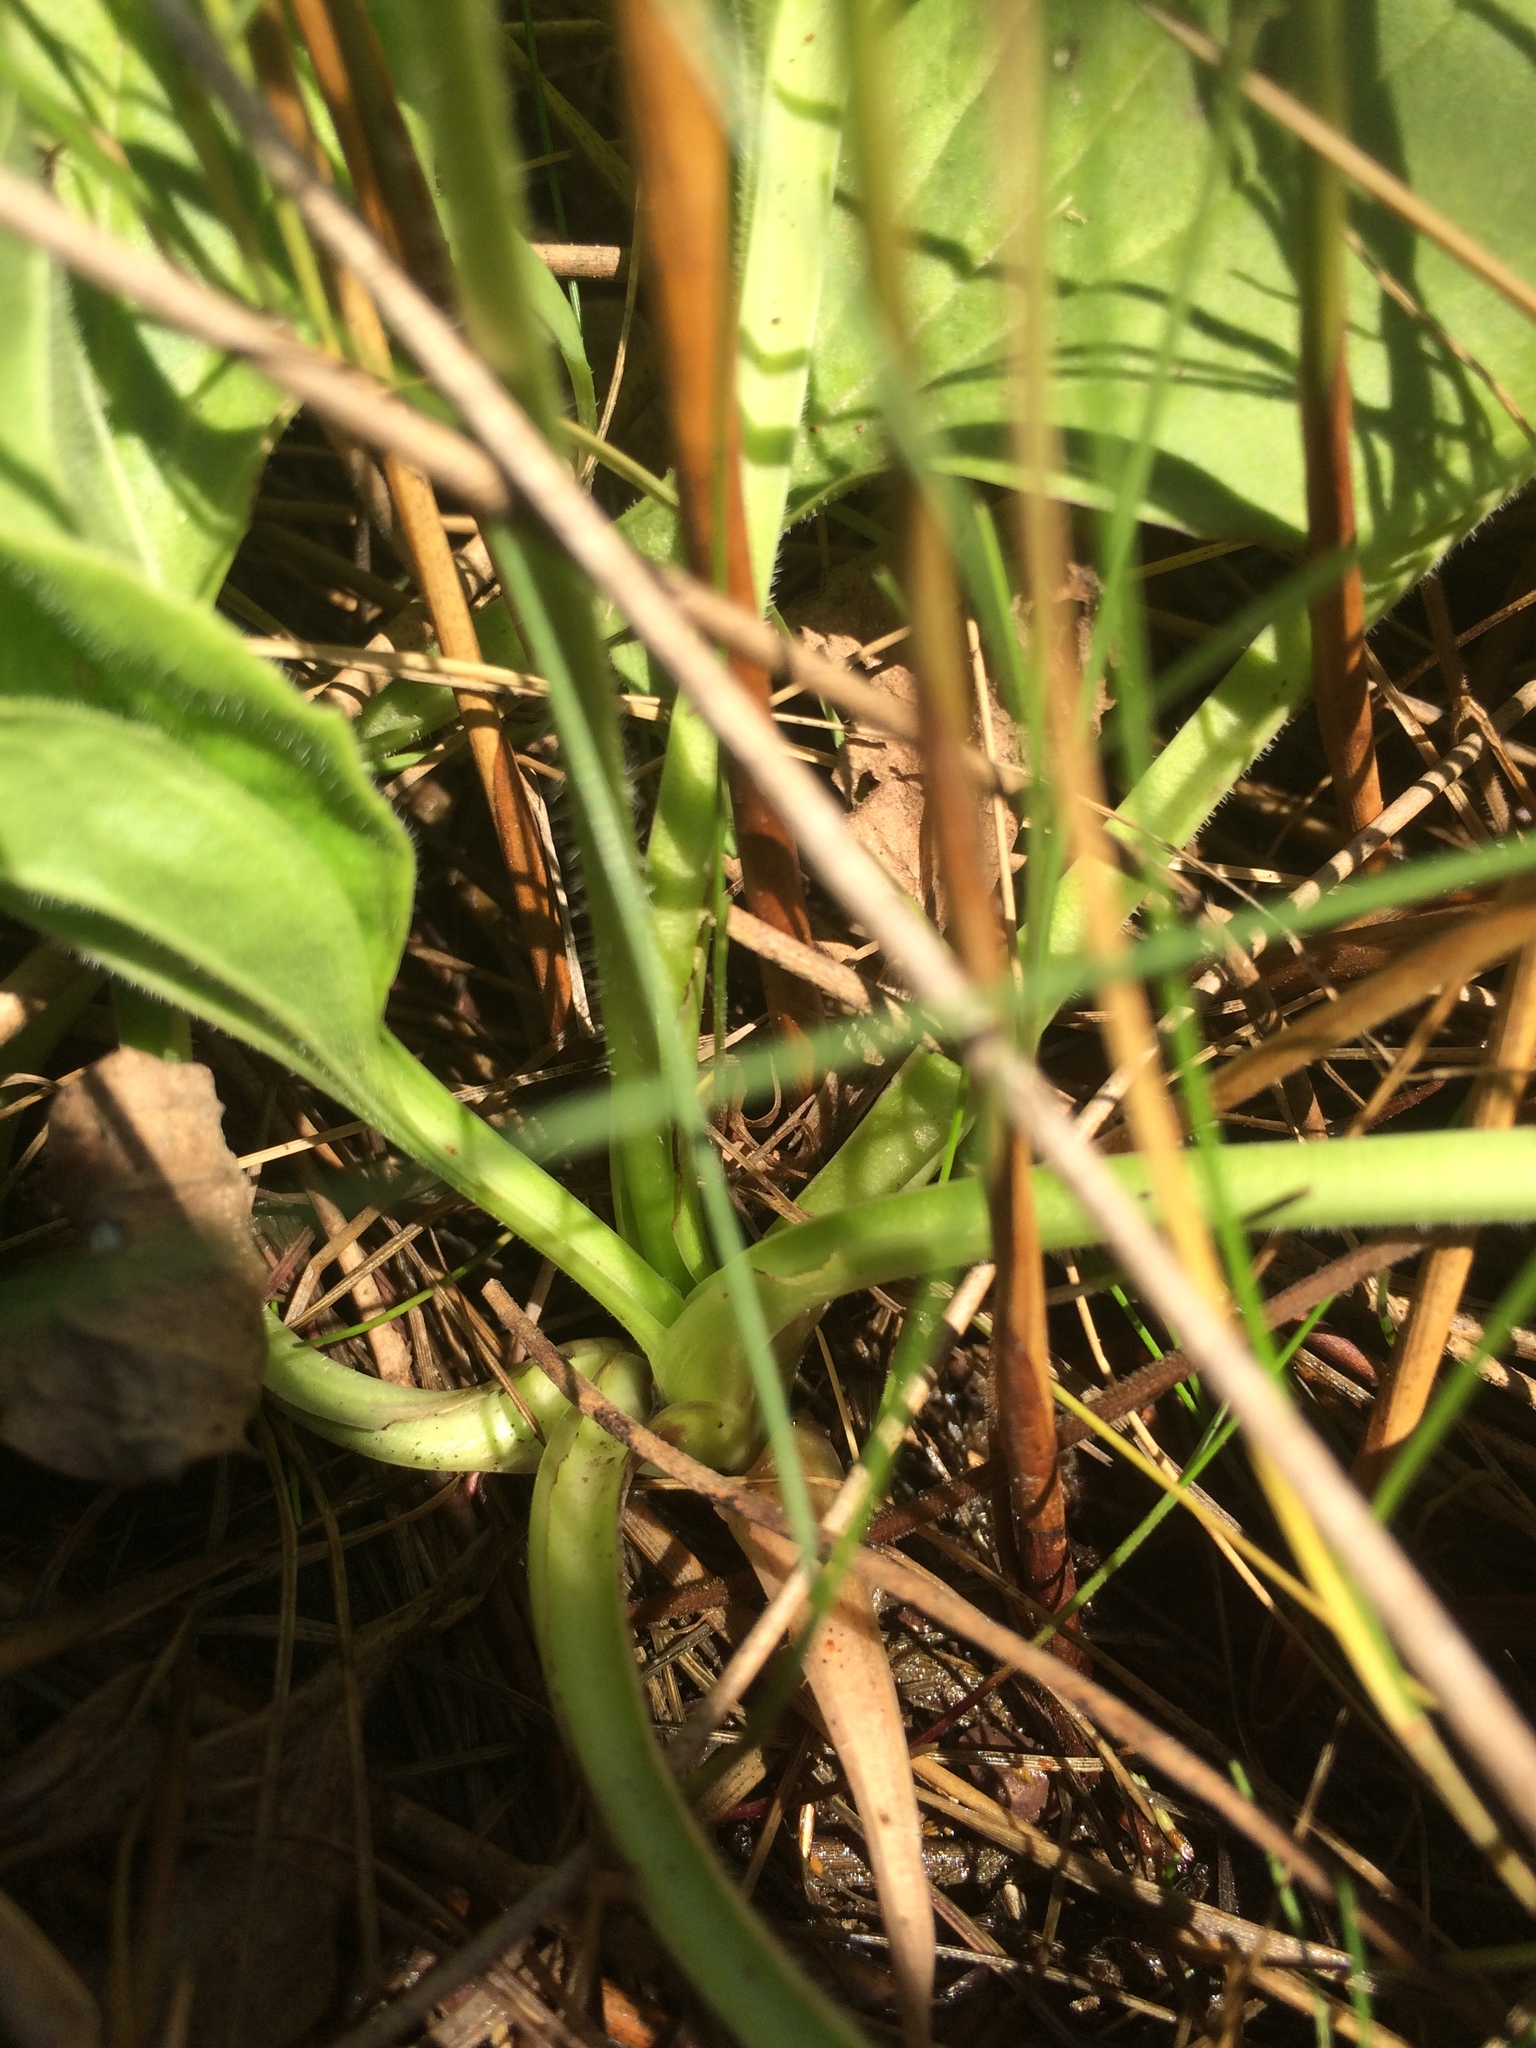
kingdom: Plantae
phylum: Tracheophyta
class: Magnoliopsida
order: Lamiales
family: Plantaginaceae
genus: Plantago
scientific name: Plantago major
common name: Common plantain
